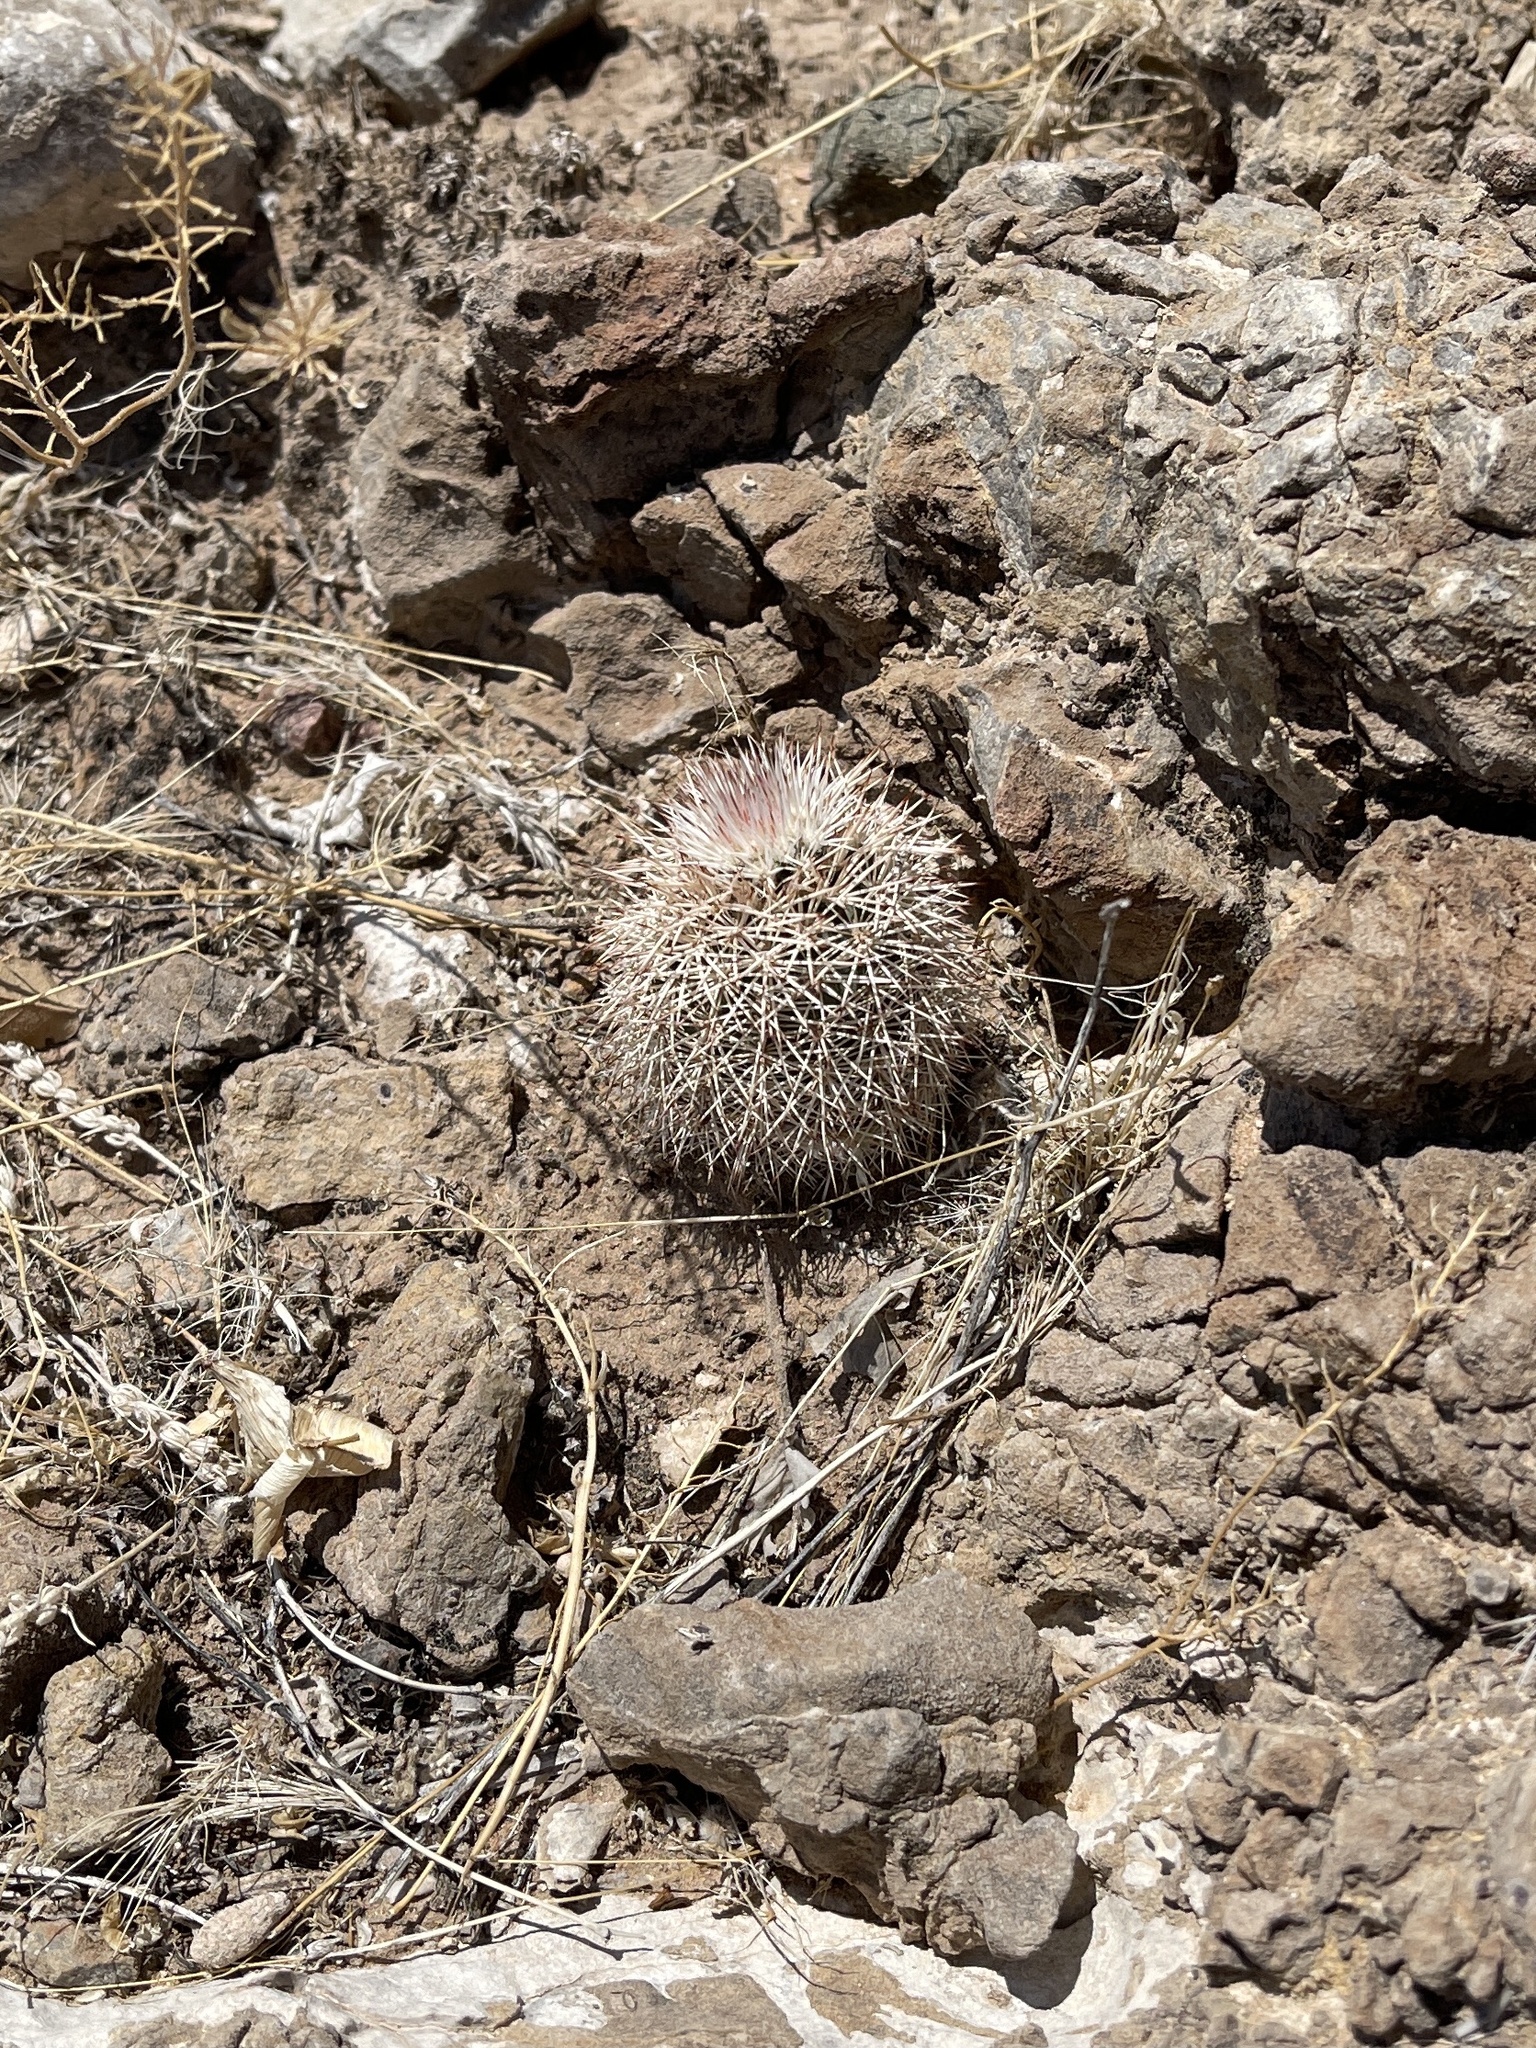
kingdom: Plantae
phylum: Tracheophyta
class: Magnoliopsida
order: Caryophyllales
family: Cactaceae
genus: Echinocereus
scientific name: Echinocereus dasyacanthus
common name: Spiny hedgehog cactus
